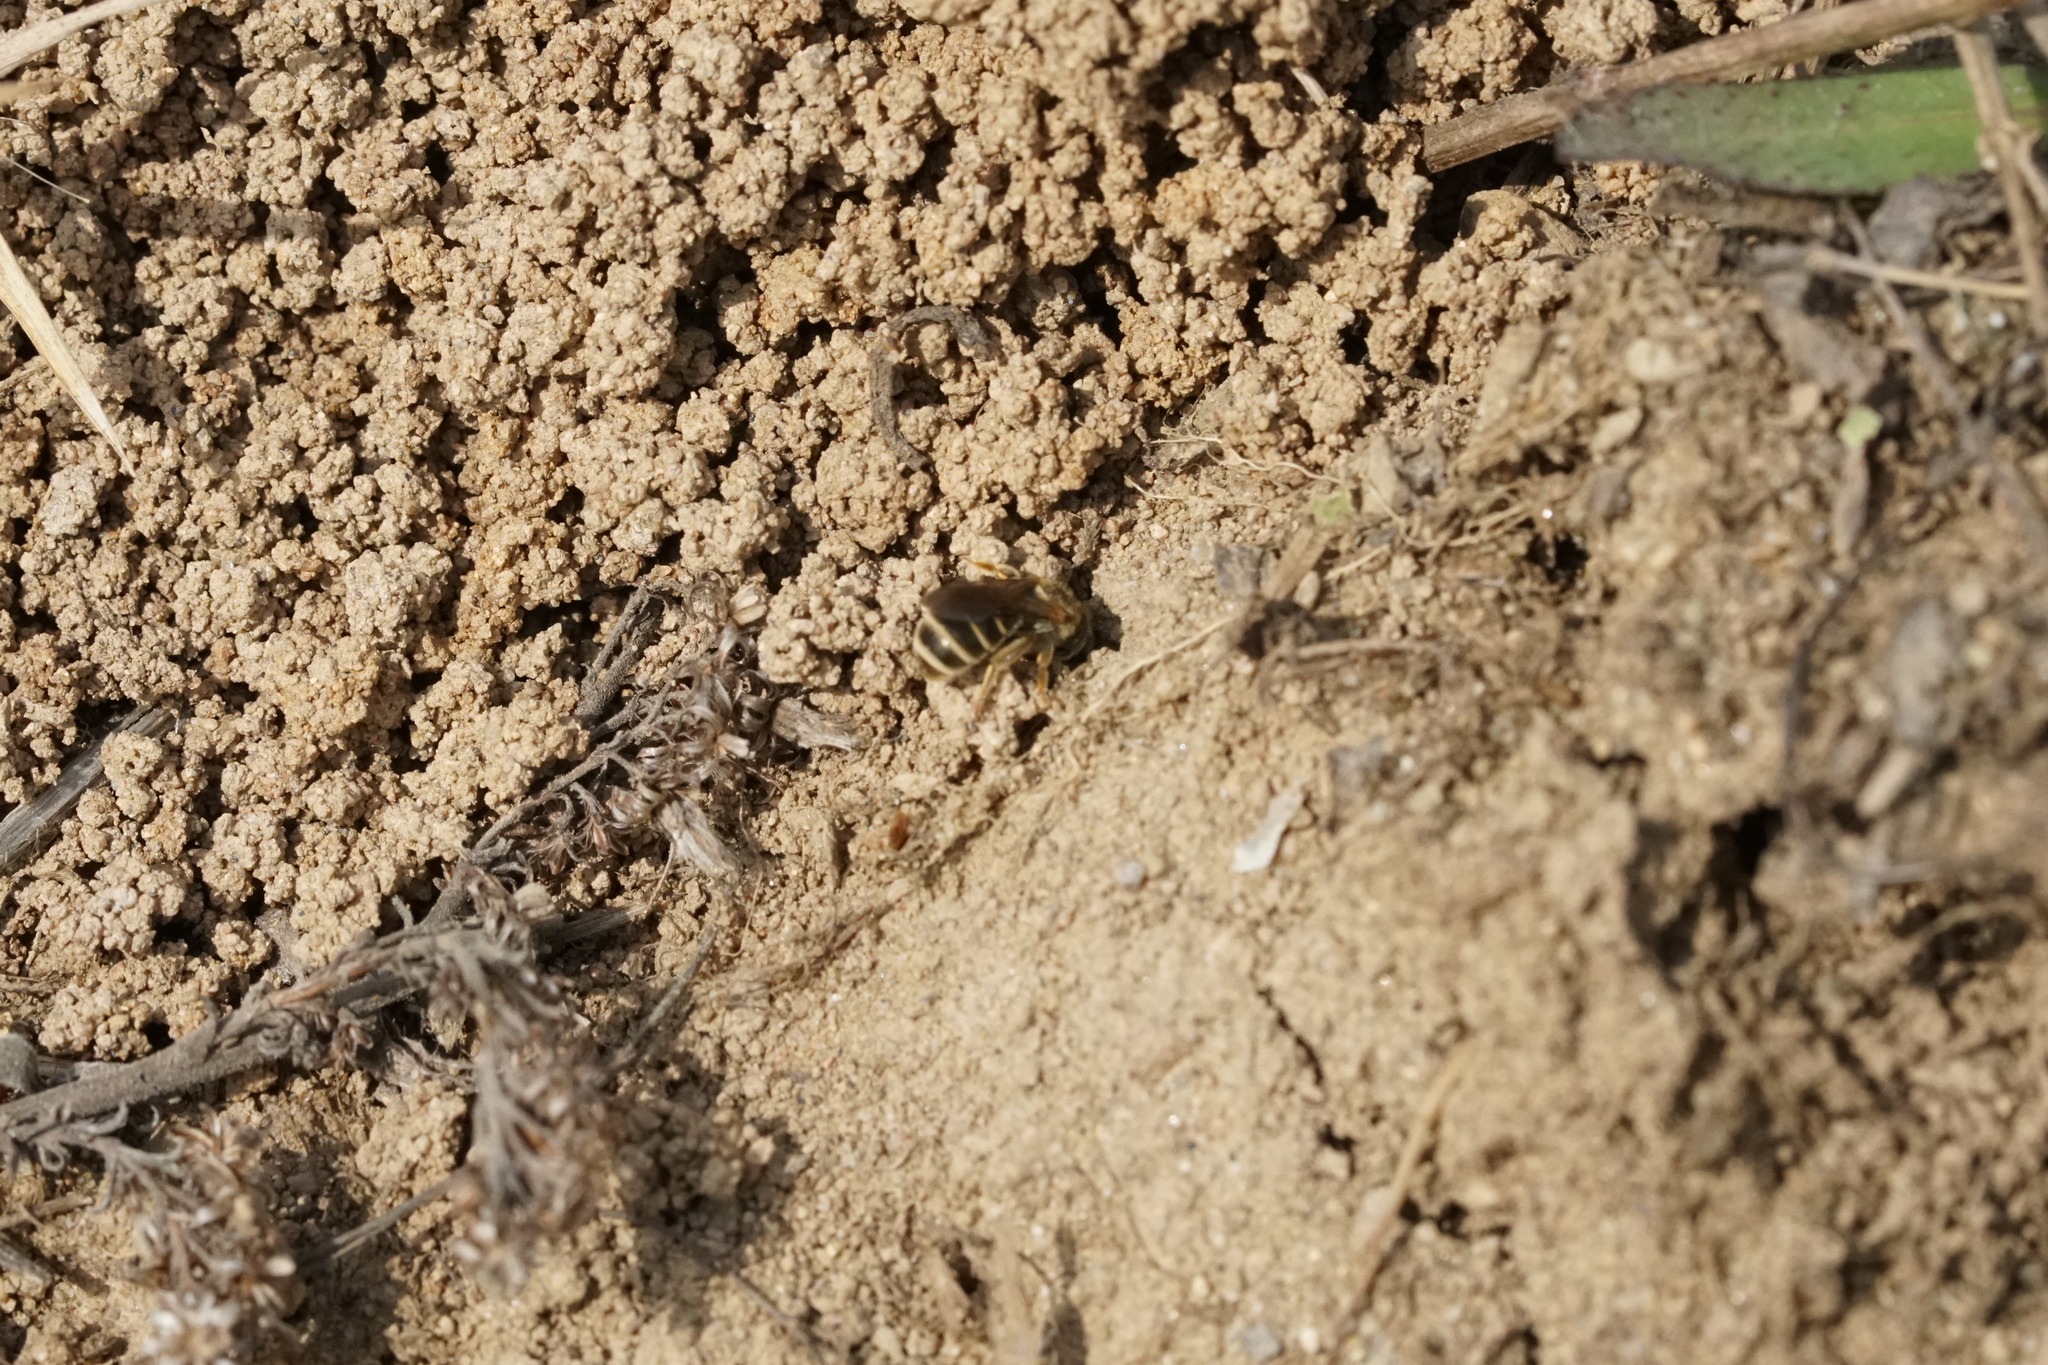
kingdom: Animalia
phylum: Arthropoda
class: Insecta
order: Hymenoptera
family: Halictidae
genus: Halictus
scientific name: Halictus confusus
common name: Southern bronze furrow bee
